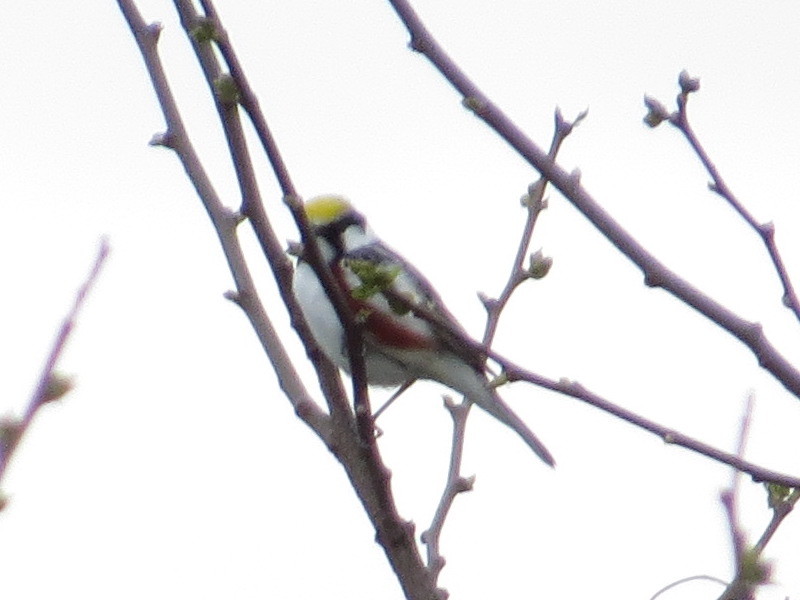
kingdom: Animalia
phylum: Chordata
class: Aves
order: Passeriformes
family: Parulidae
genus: Setophaga
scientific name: Setophaga pensylvanica
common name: Chestnut-sided warbler
